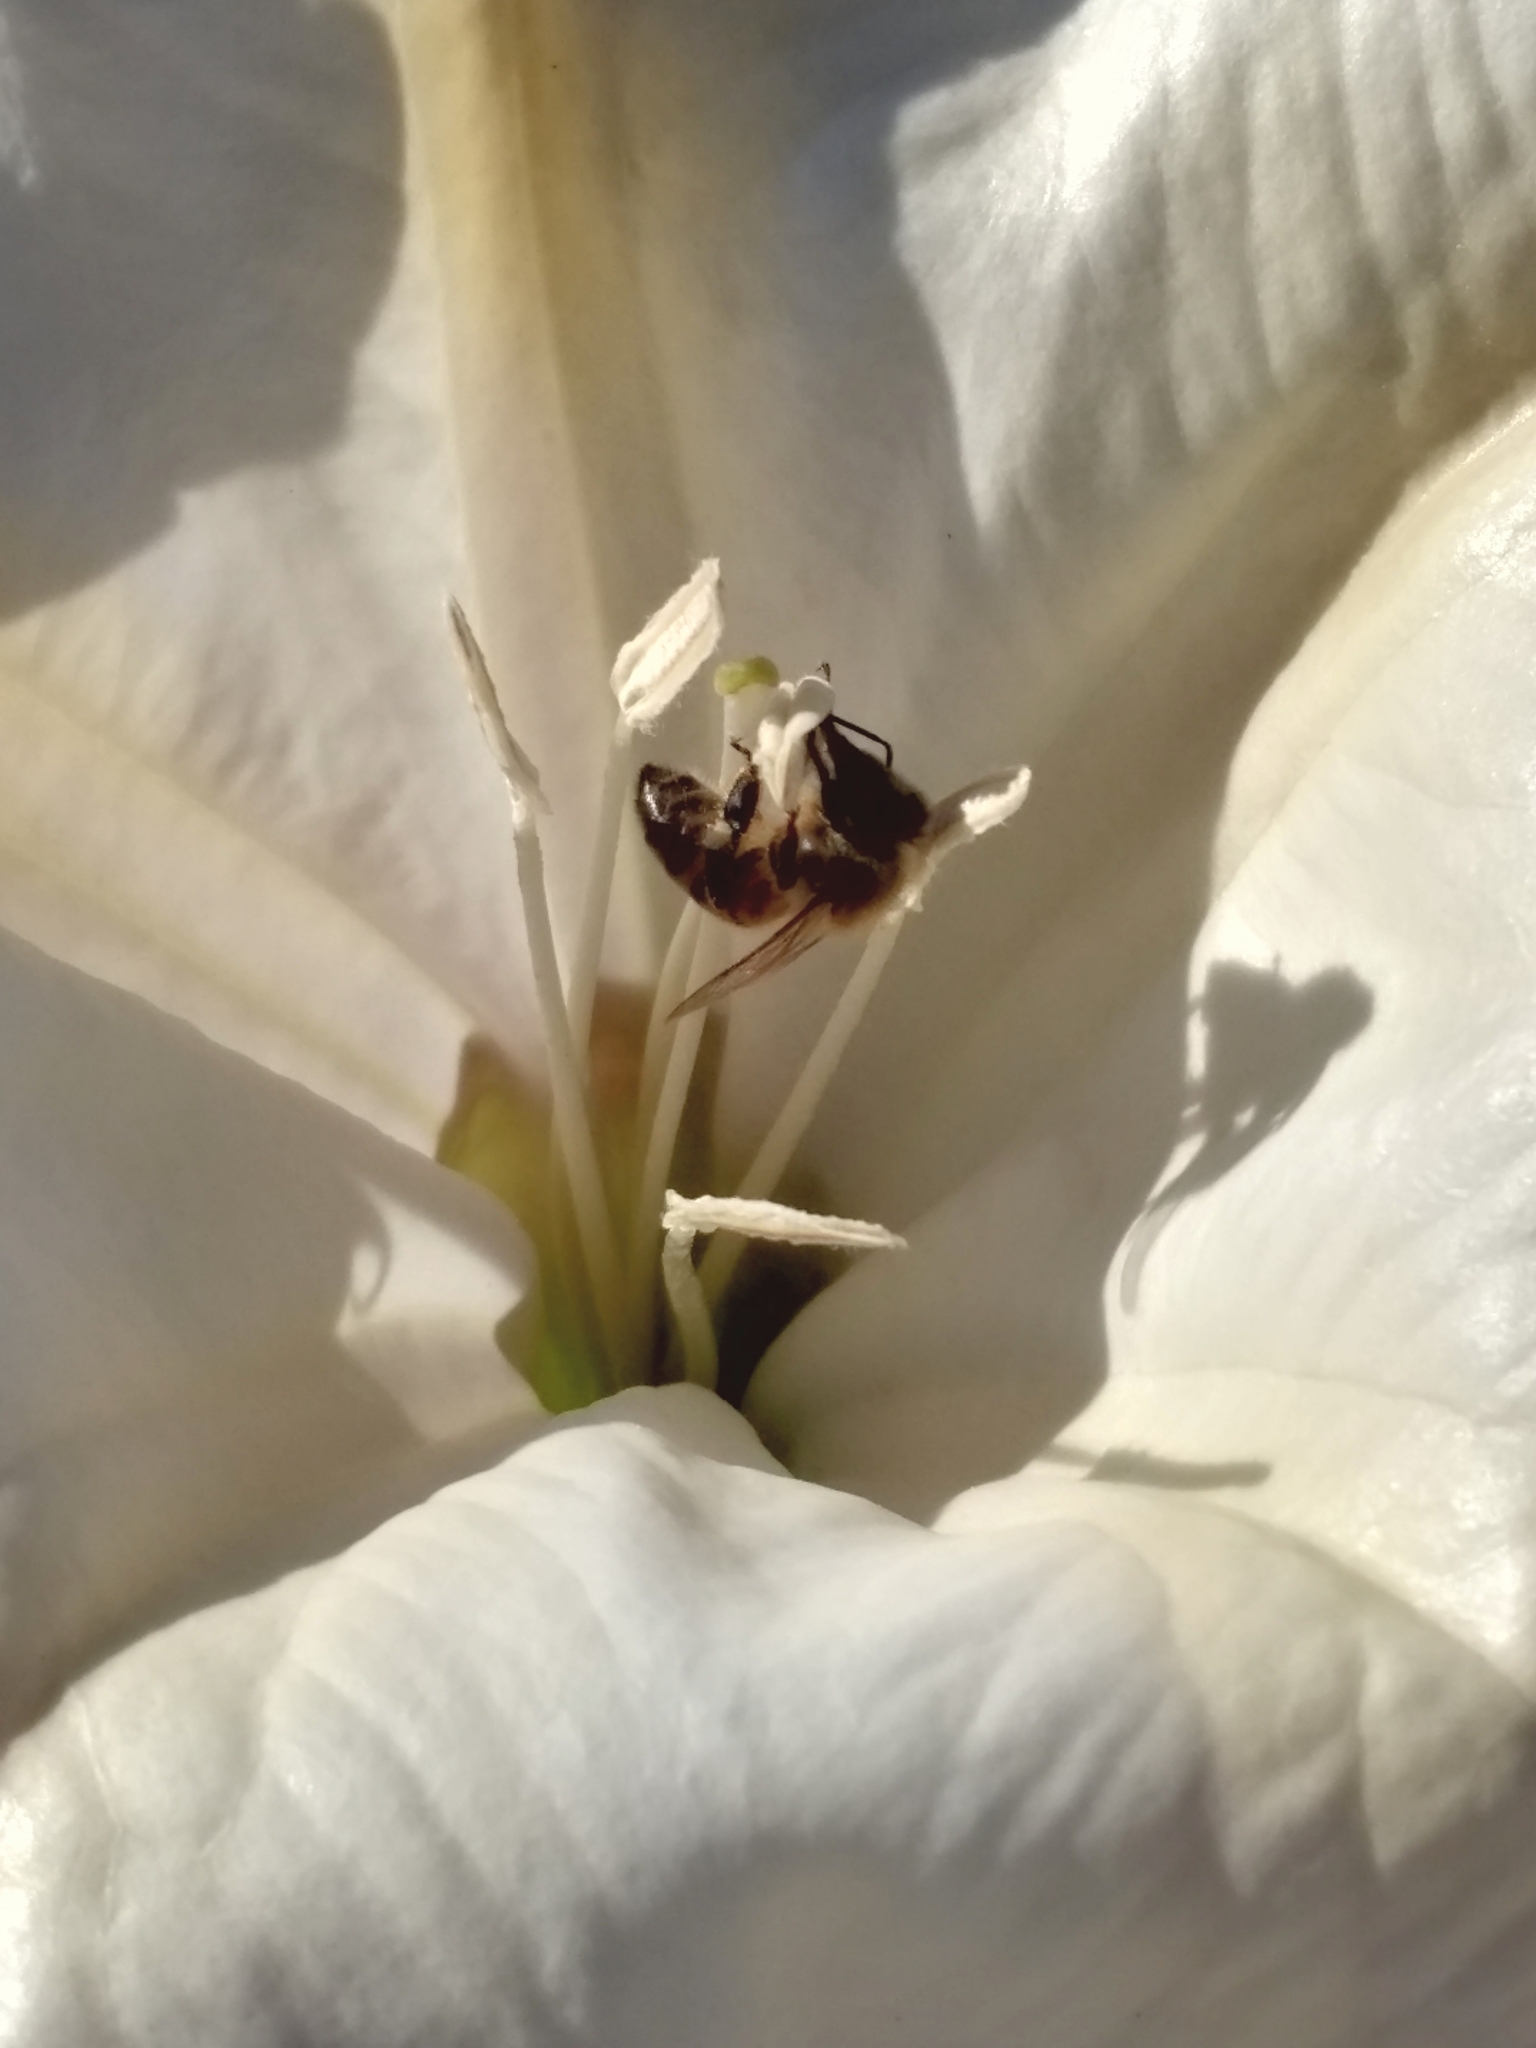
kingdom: Animalia
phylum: Arthropoda
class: Insecta
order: Hymenoptera
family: Apidae
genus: Apis
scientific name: Apis mellifera
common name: Honey bee
